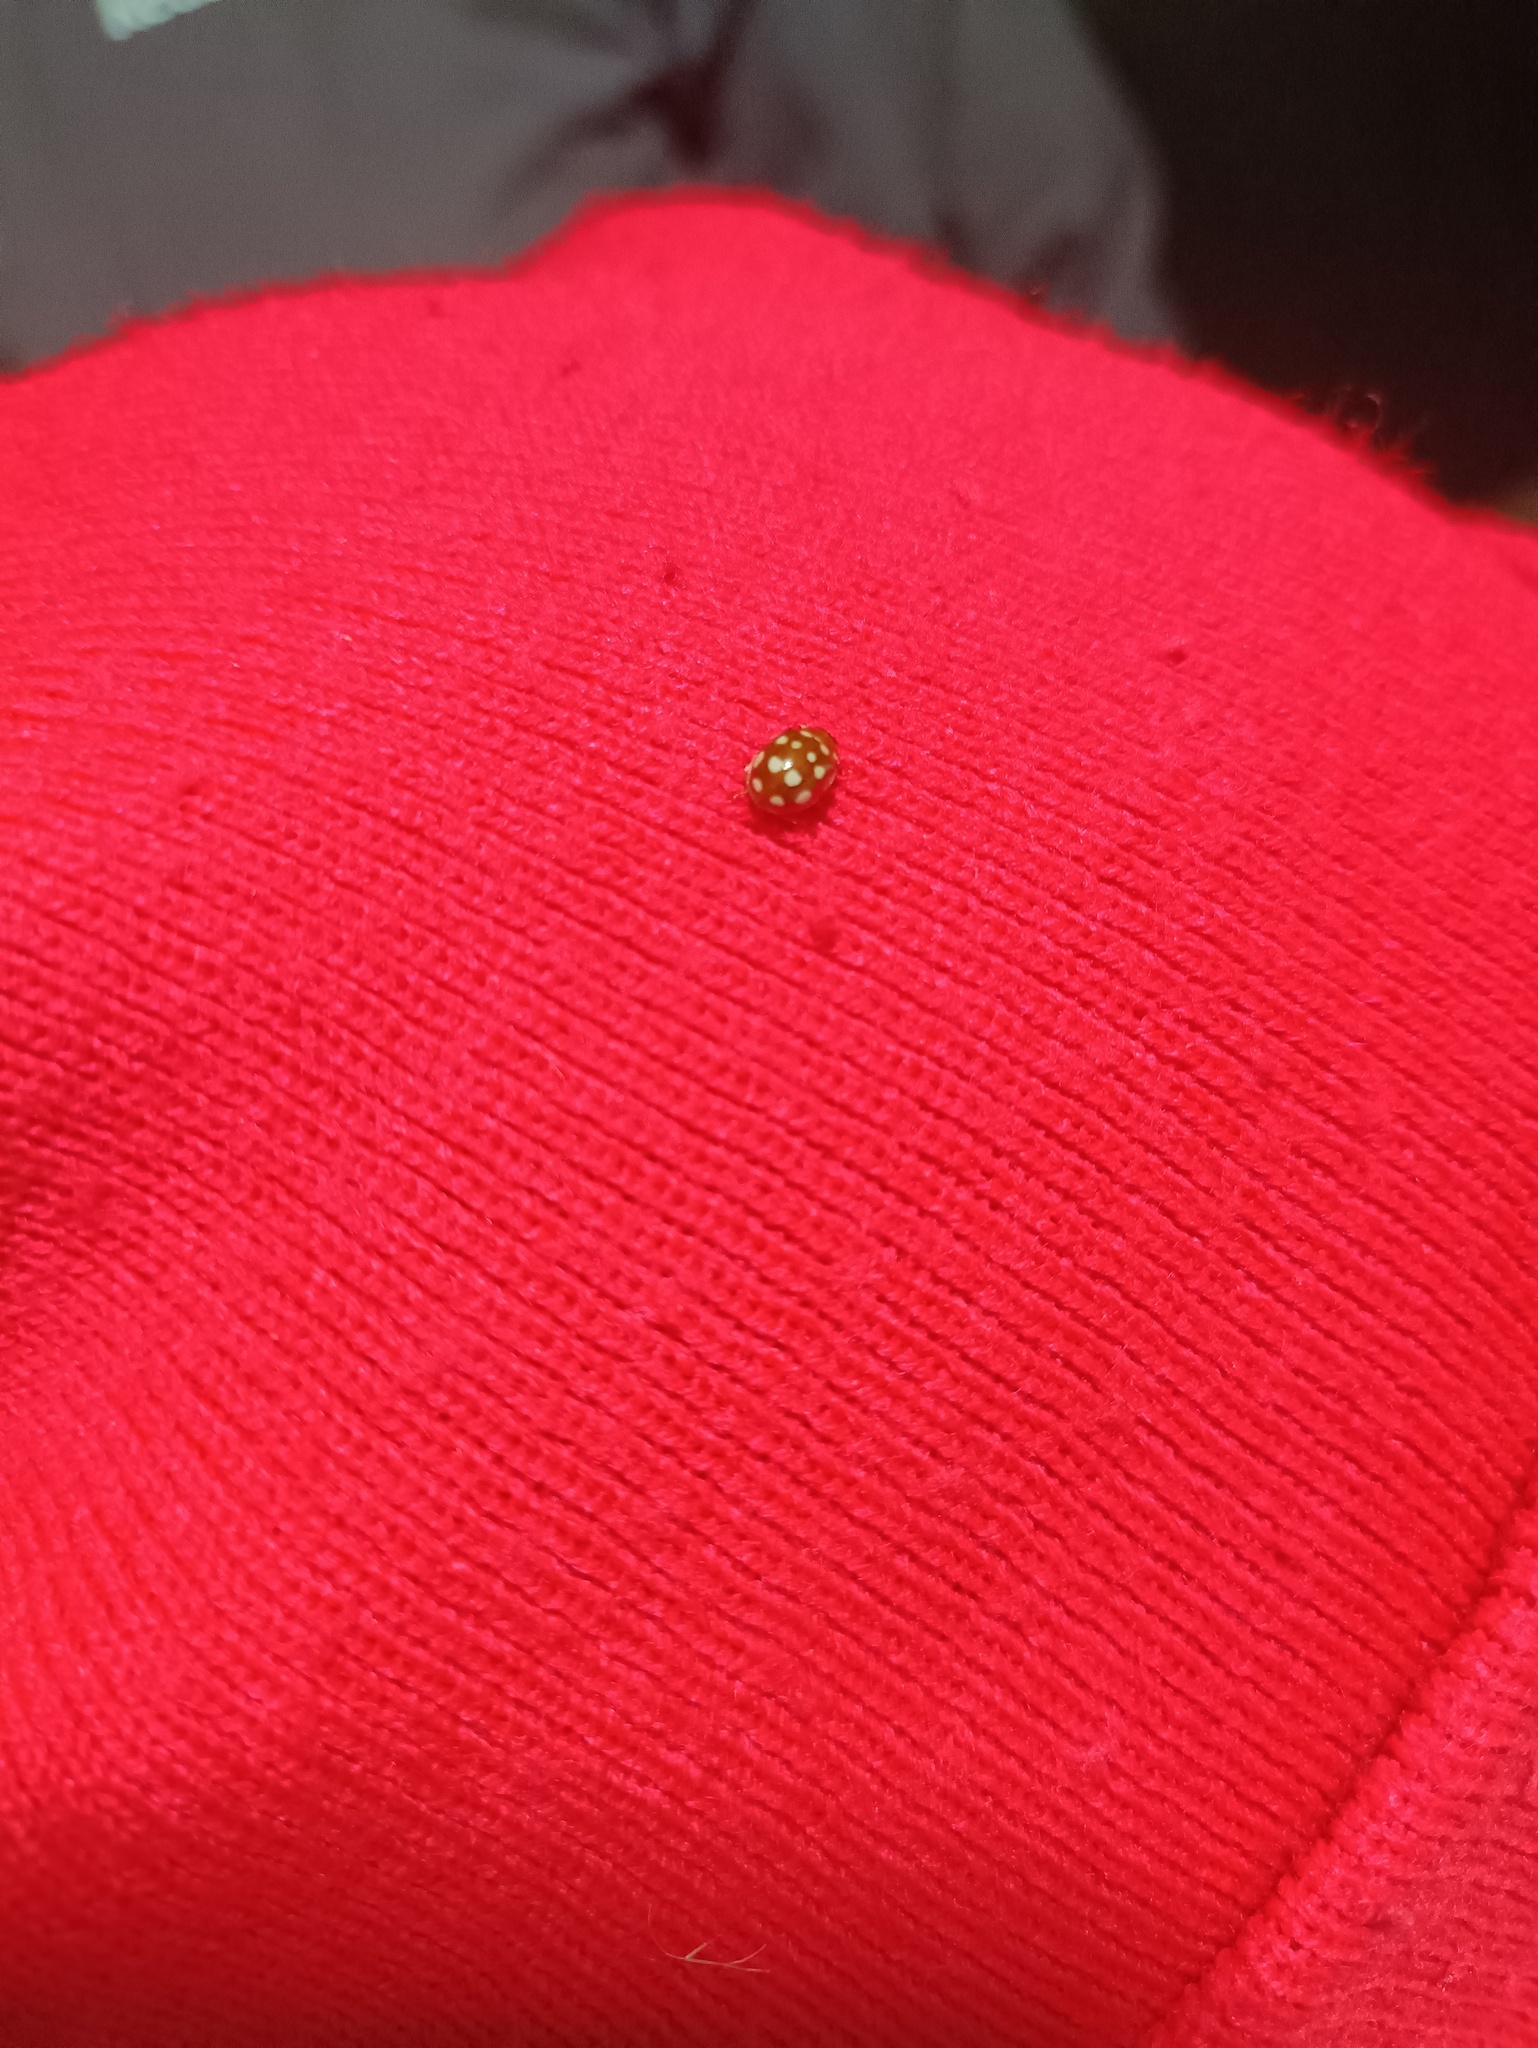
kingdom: Animalia
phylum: Arthropoda
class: Insecta
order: Coleoptera
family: Coccinellidae
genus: Calvia
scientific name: Calvia quatuordecimguttata
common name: Cream-spot ladybird
